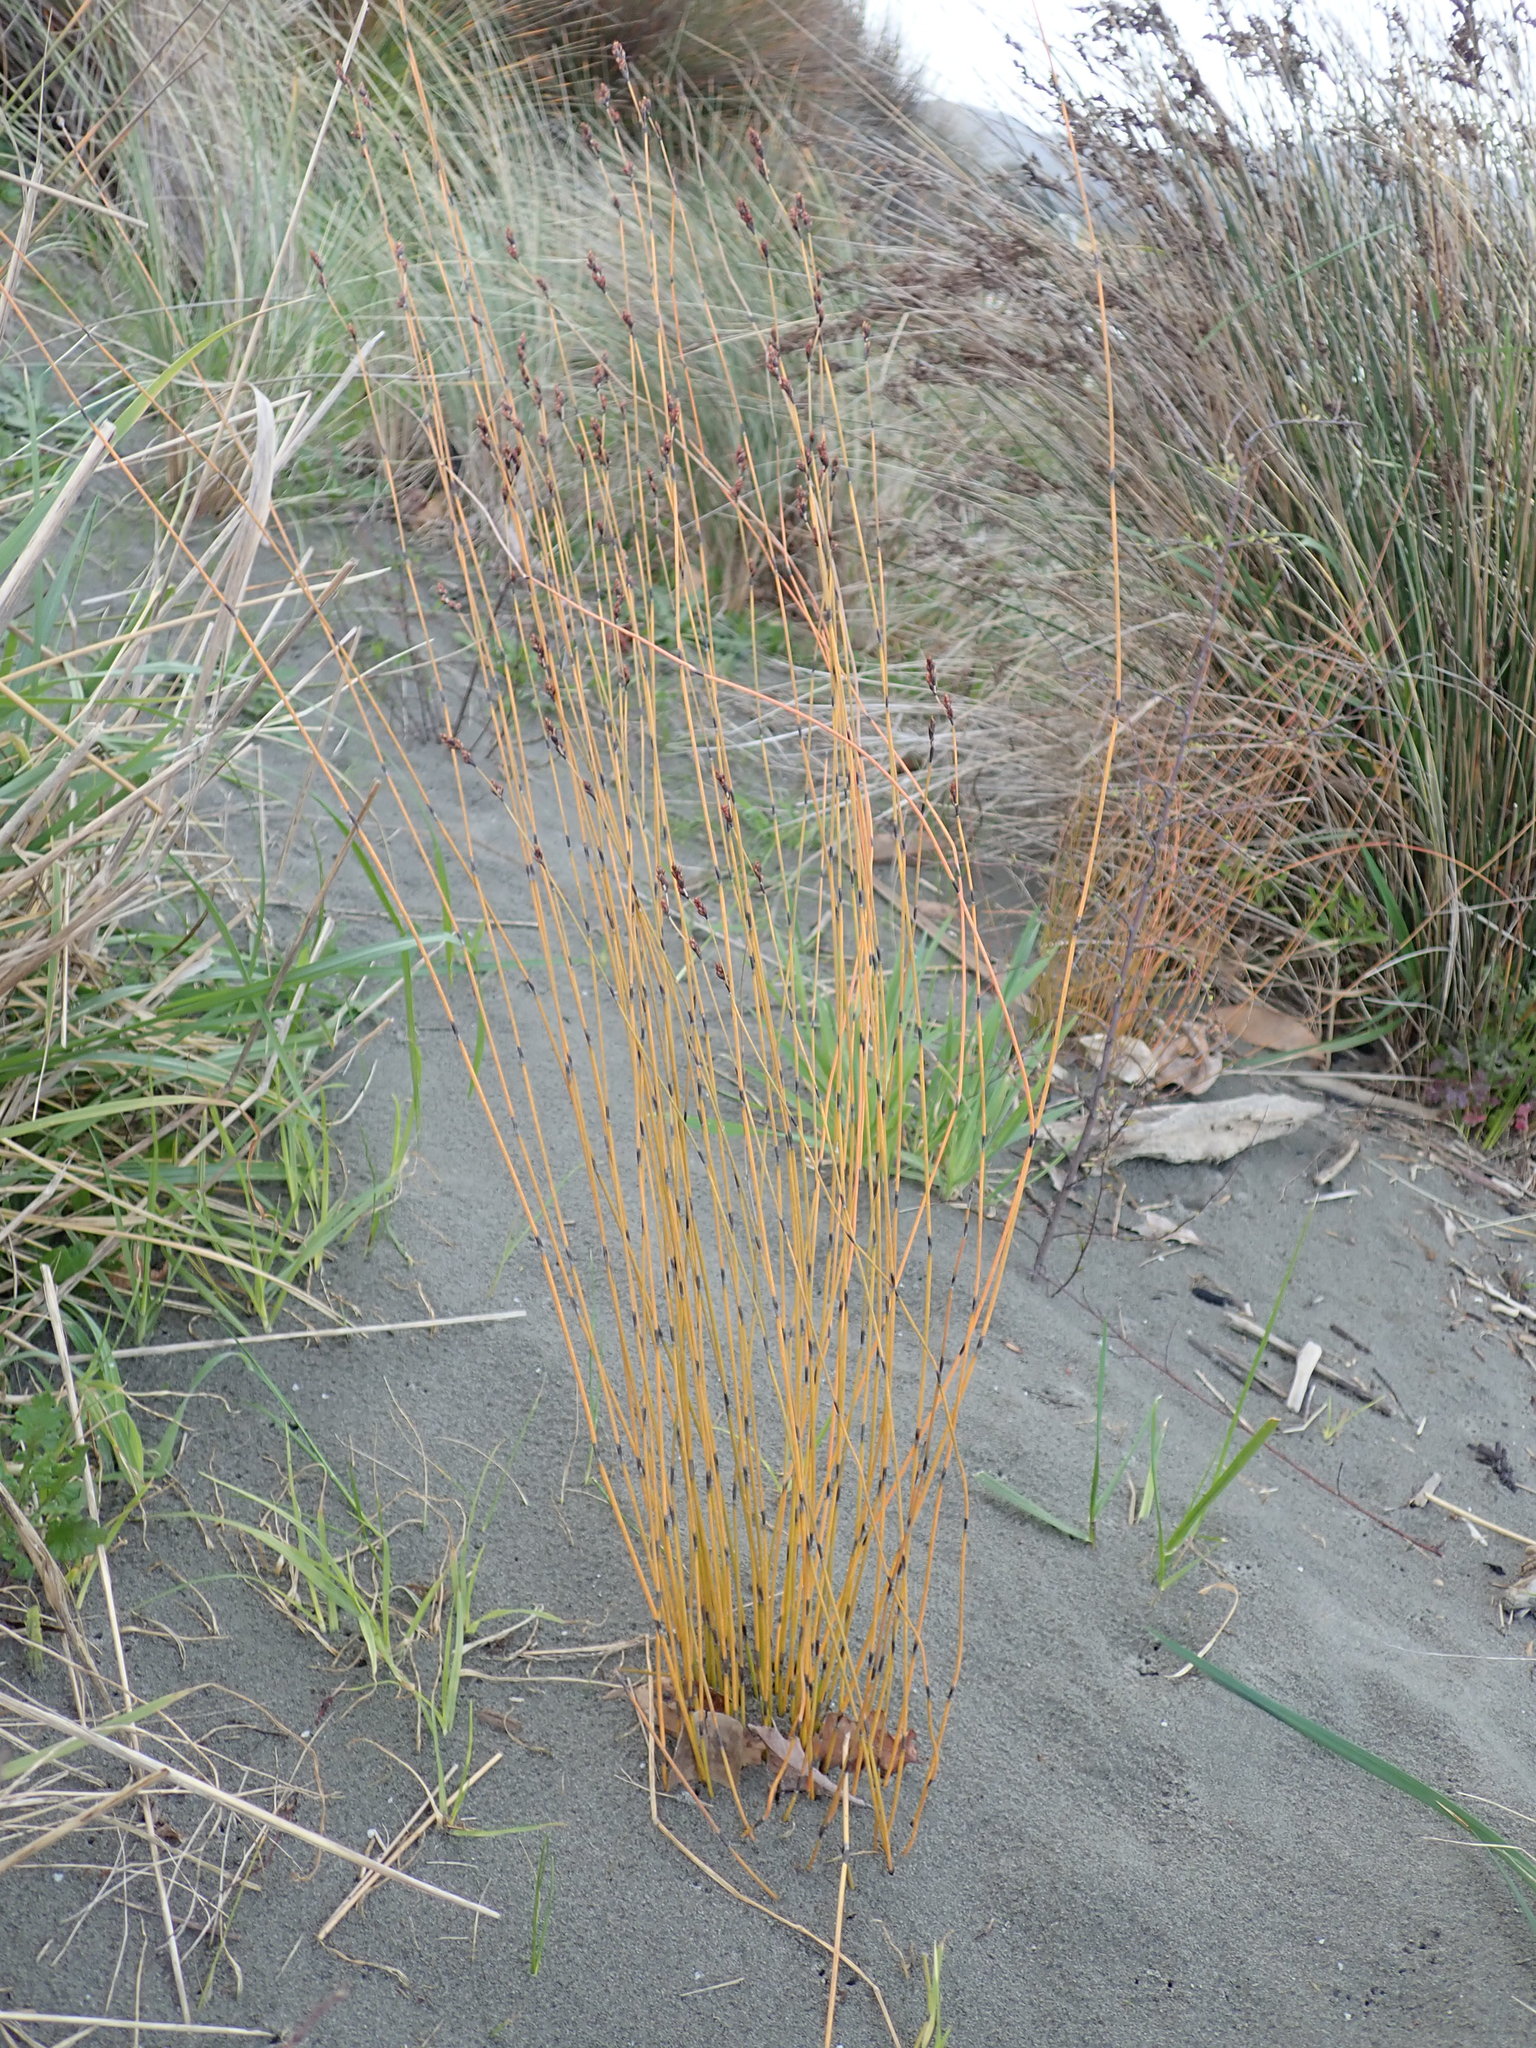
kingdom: Plantae
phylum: Tracheophyta
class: Liliopsida
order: Poales
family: Restionaceae
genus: Apodasmia
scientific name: Apodasmia similis
